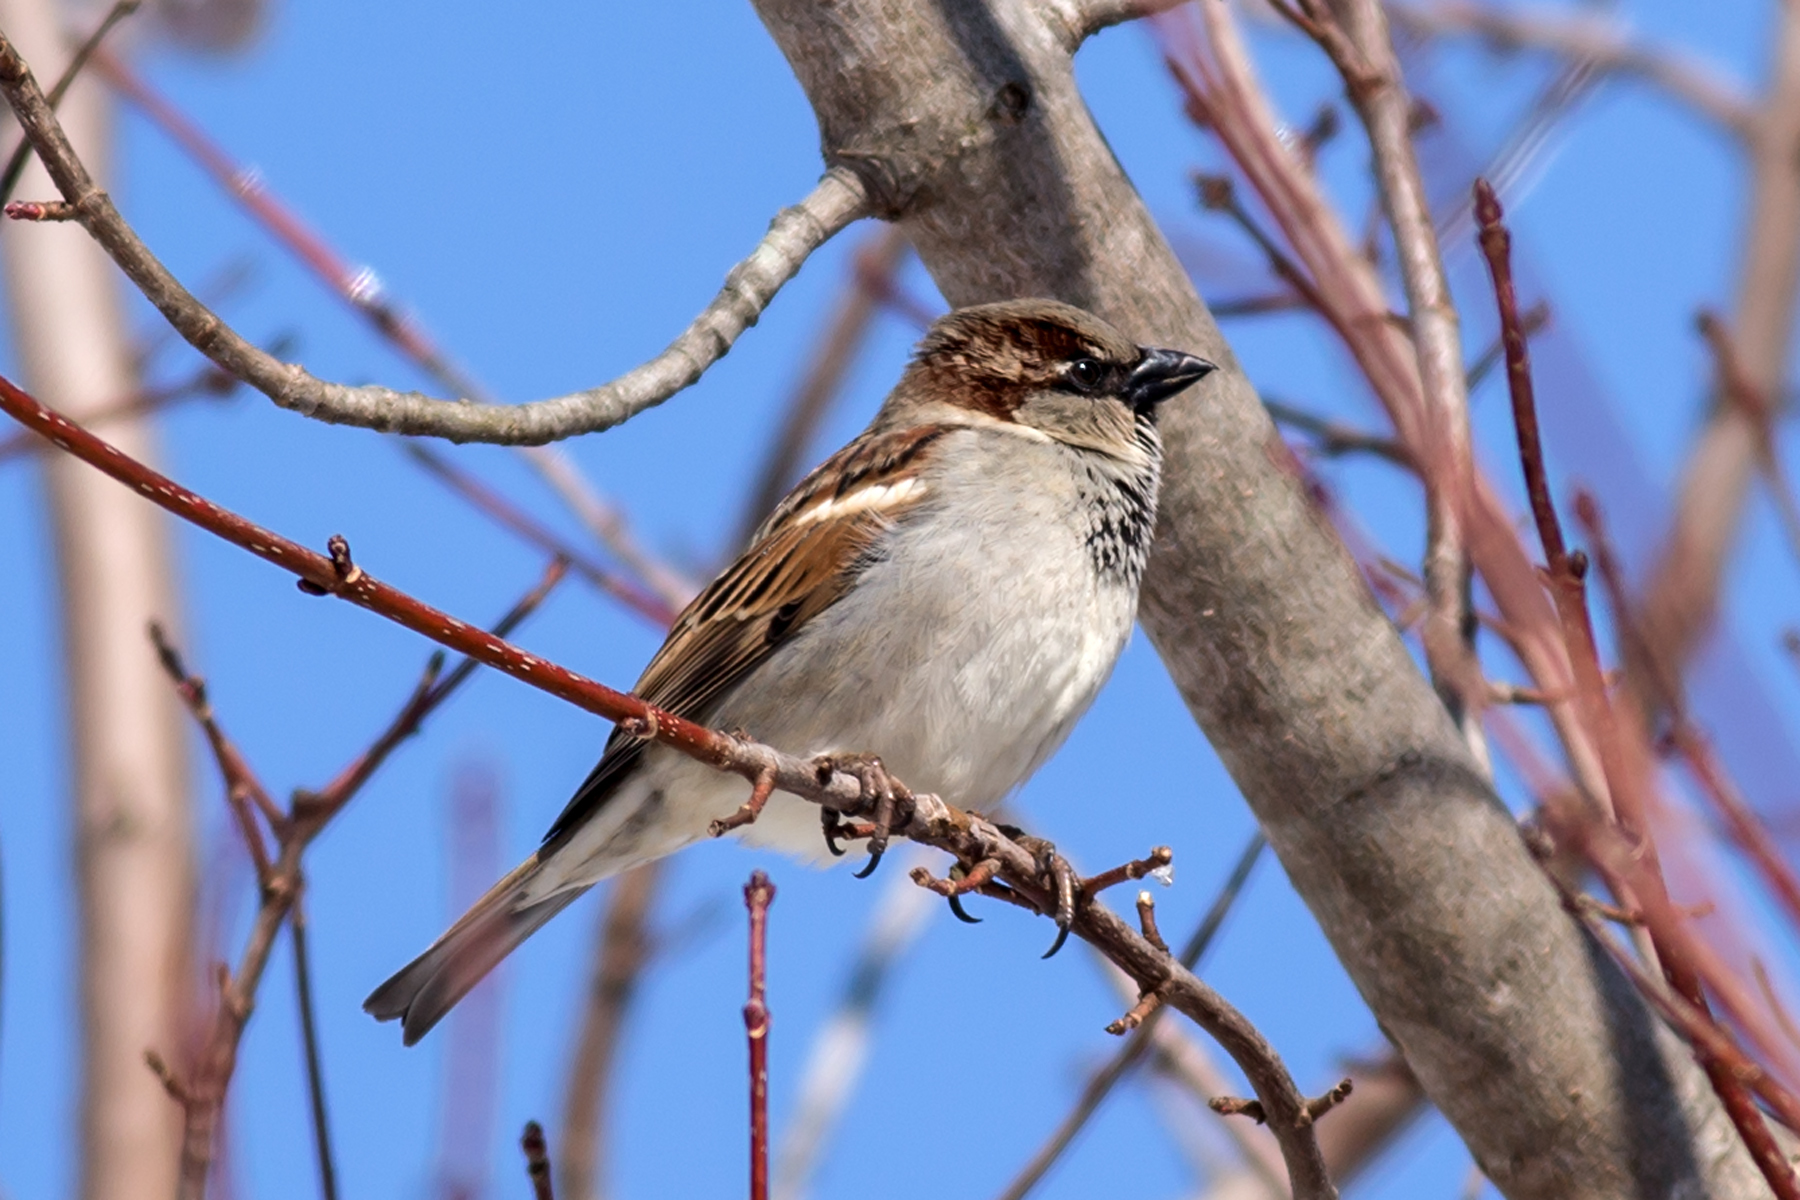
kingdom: Animalia
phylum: Chordata
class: Aves
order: Passeriformes
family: Passeridae
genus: Passer
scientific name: Passer domesticus
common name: House sparrow
